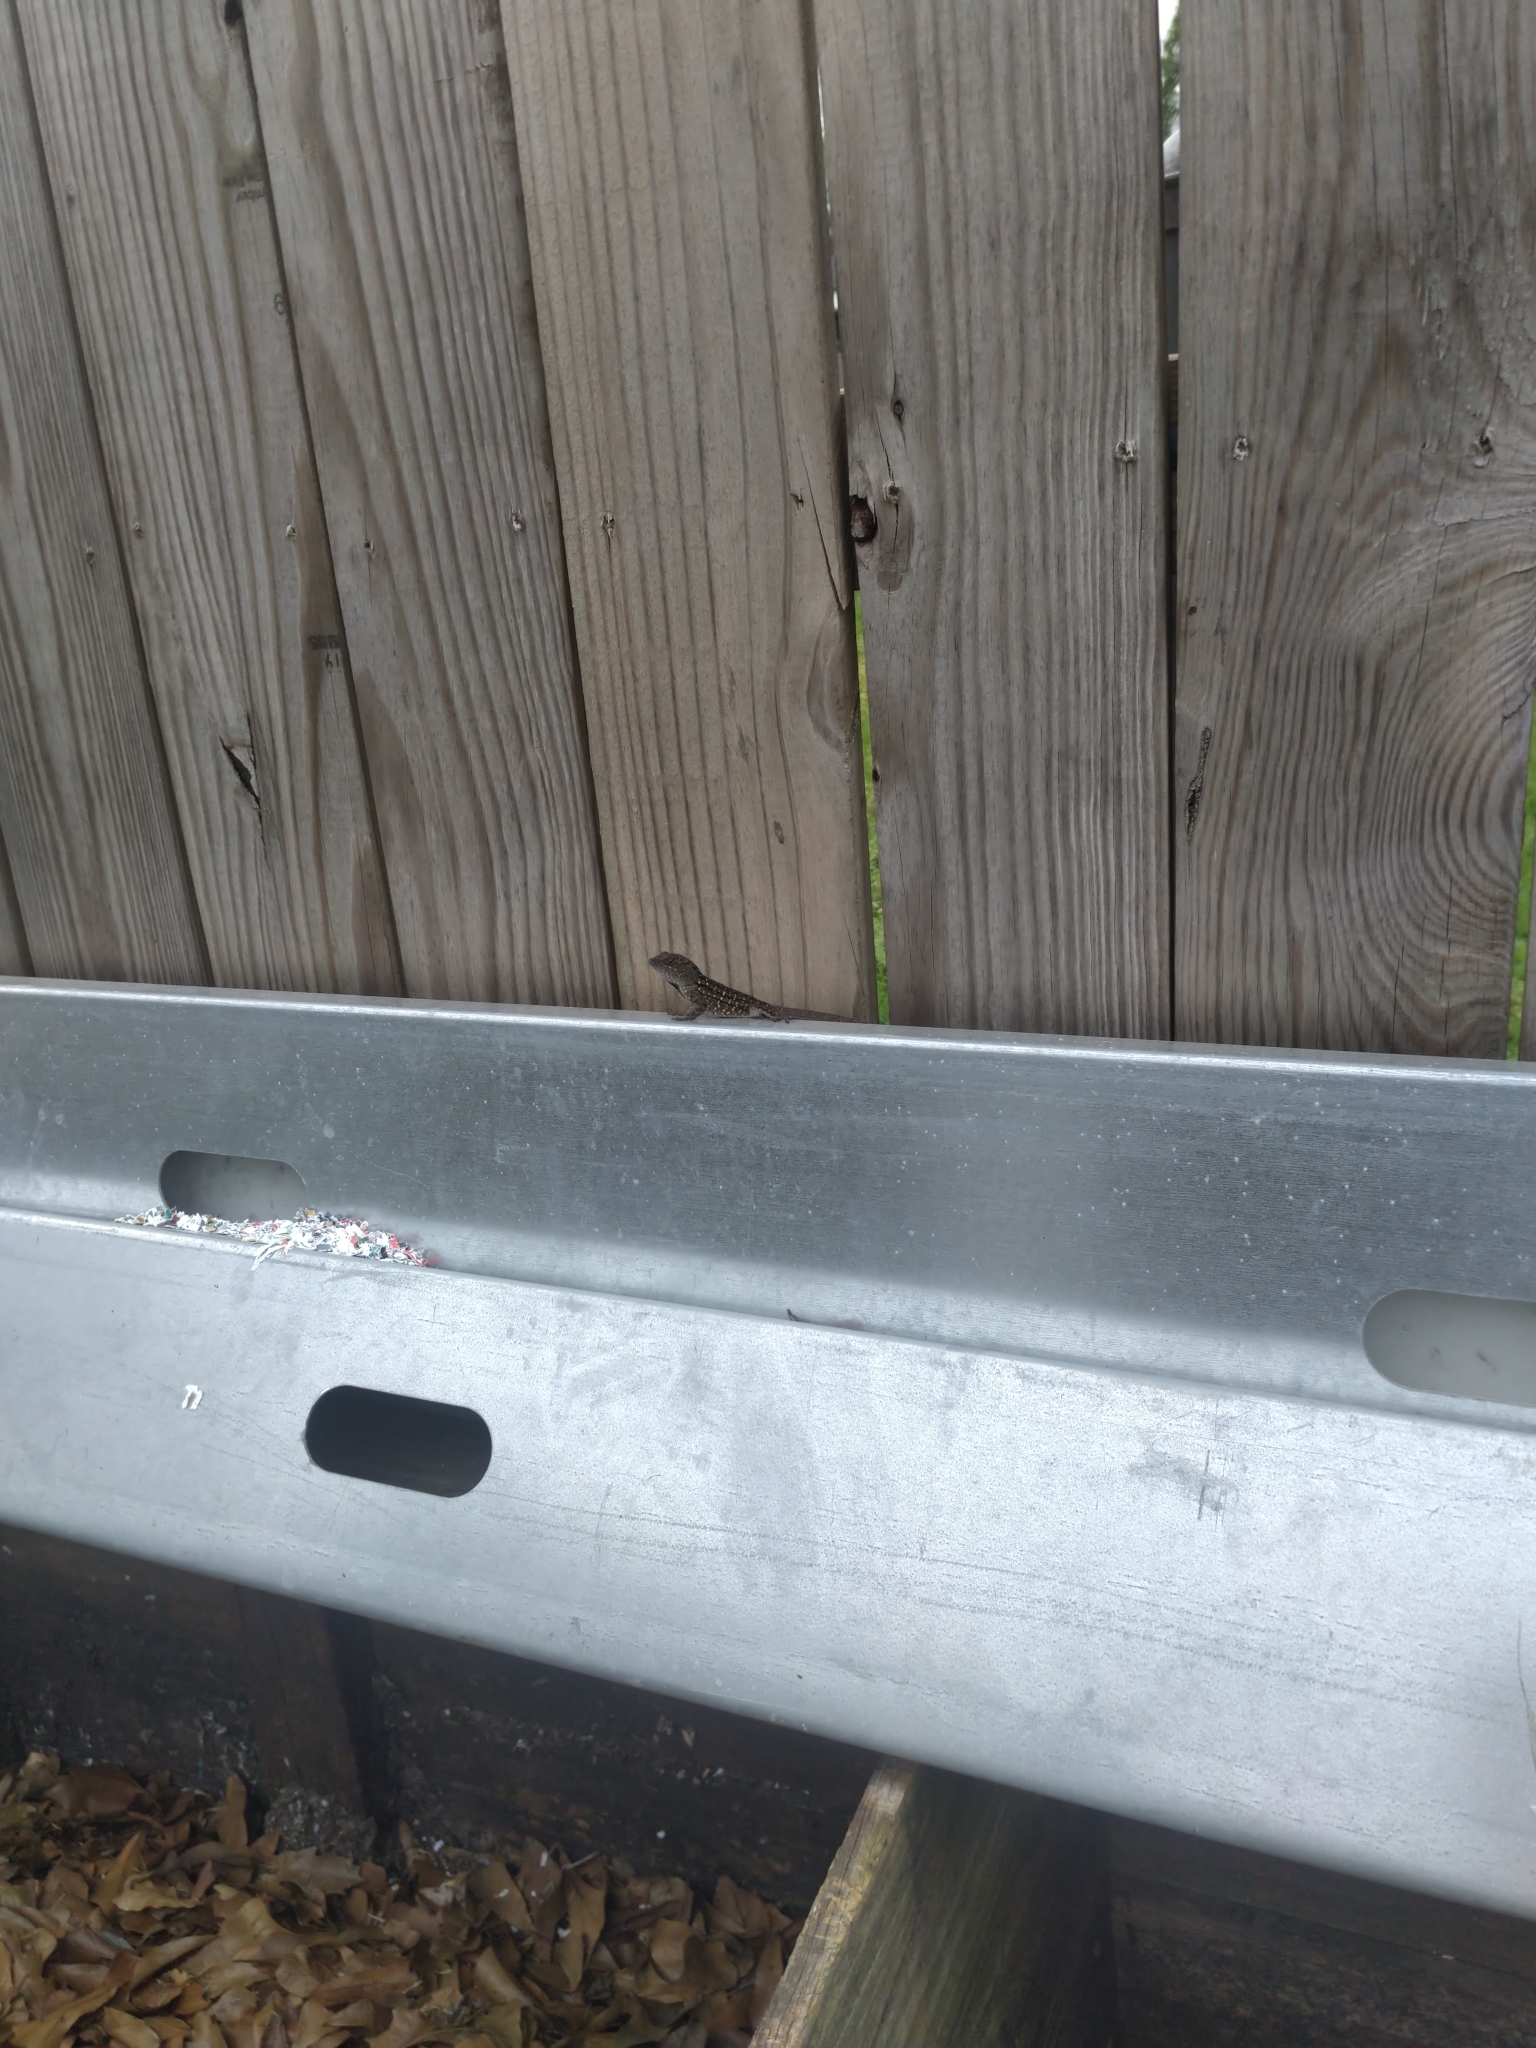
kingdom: Animalia
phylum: Chordata
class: Squamata
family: Dactyloidae
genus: Anolis
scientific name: Anolis sagrei
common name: Brown anole
